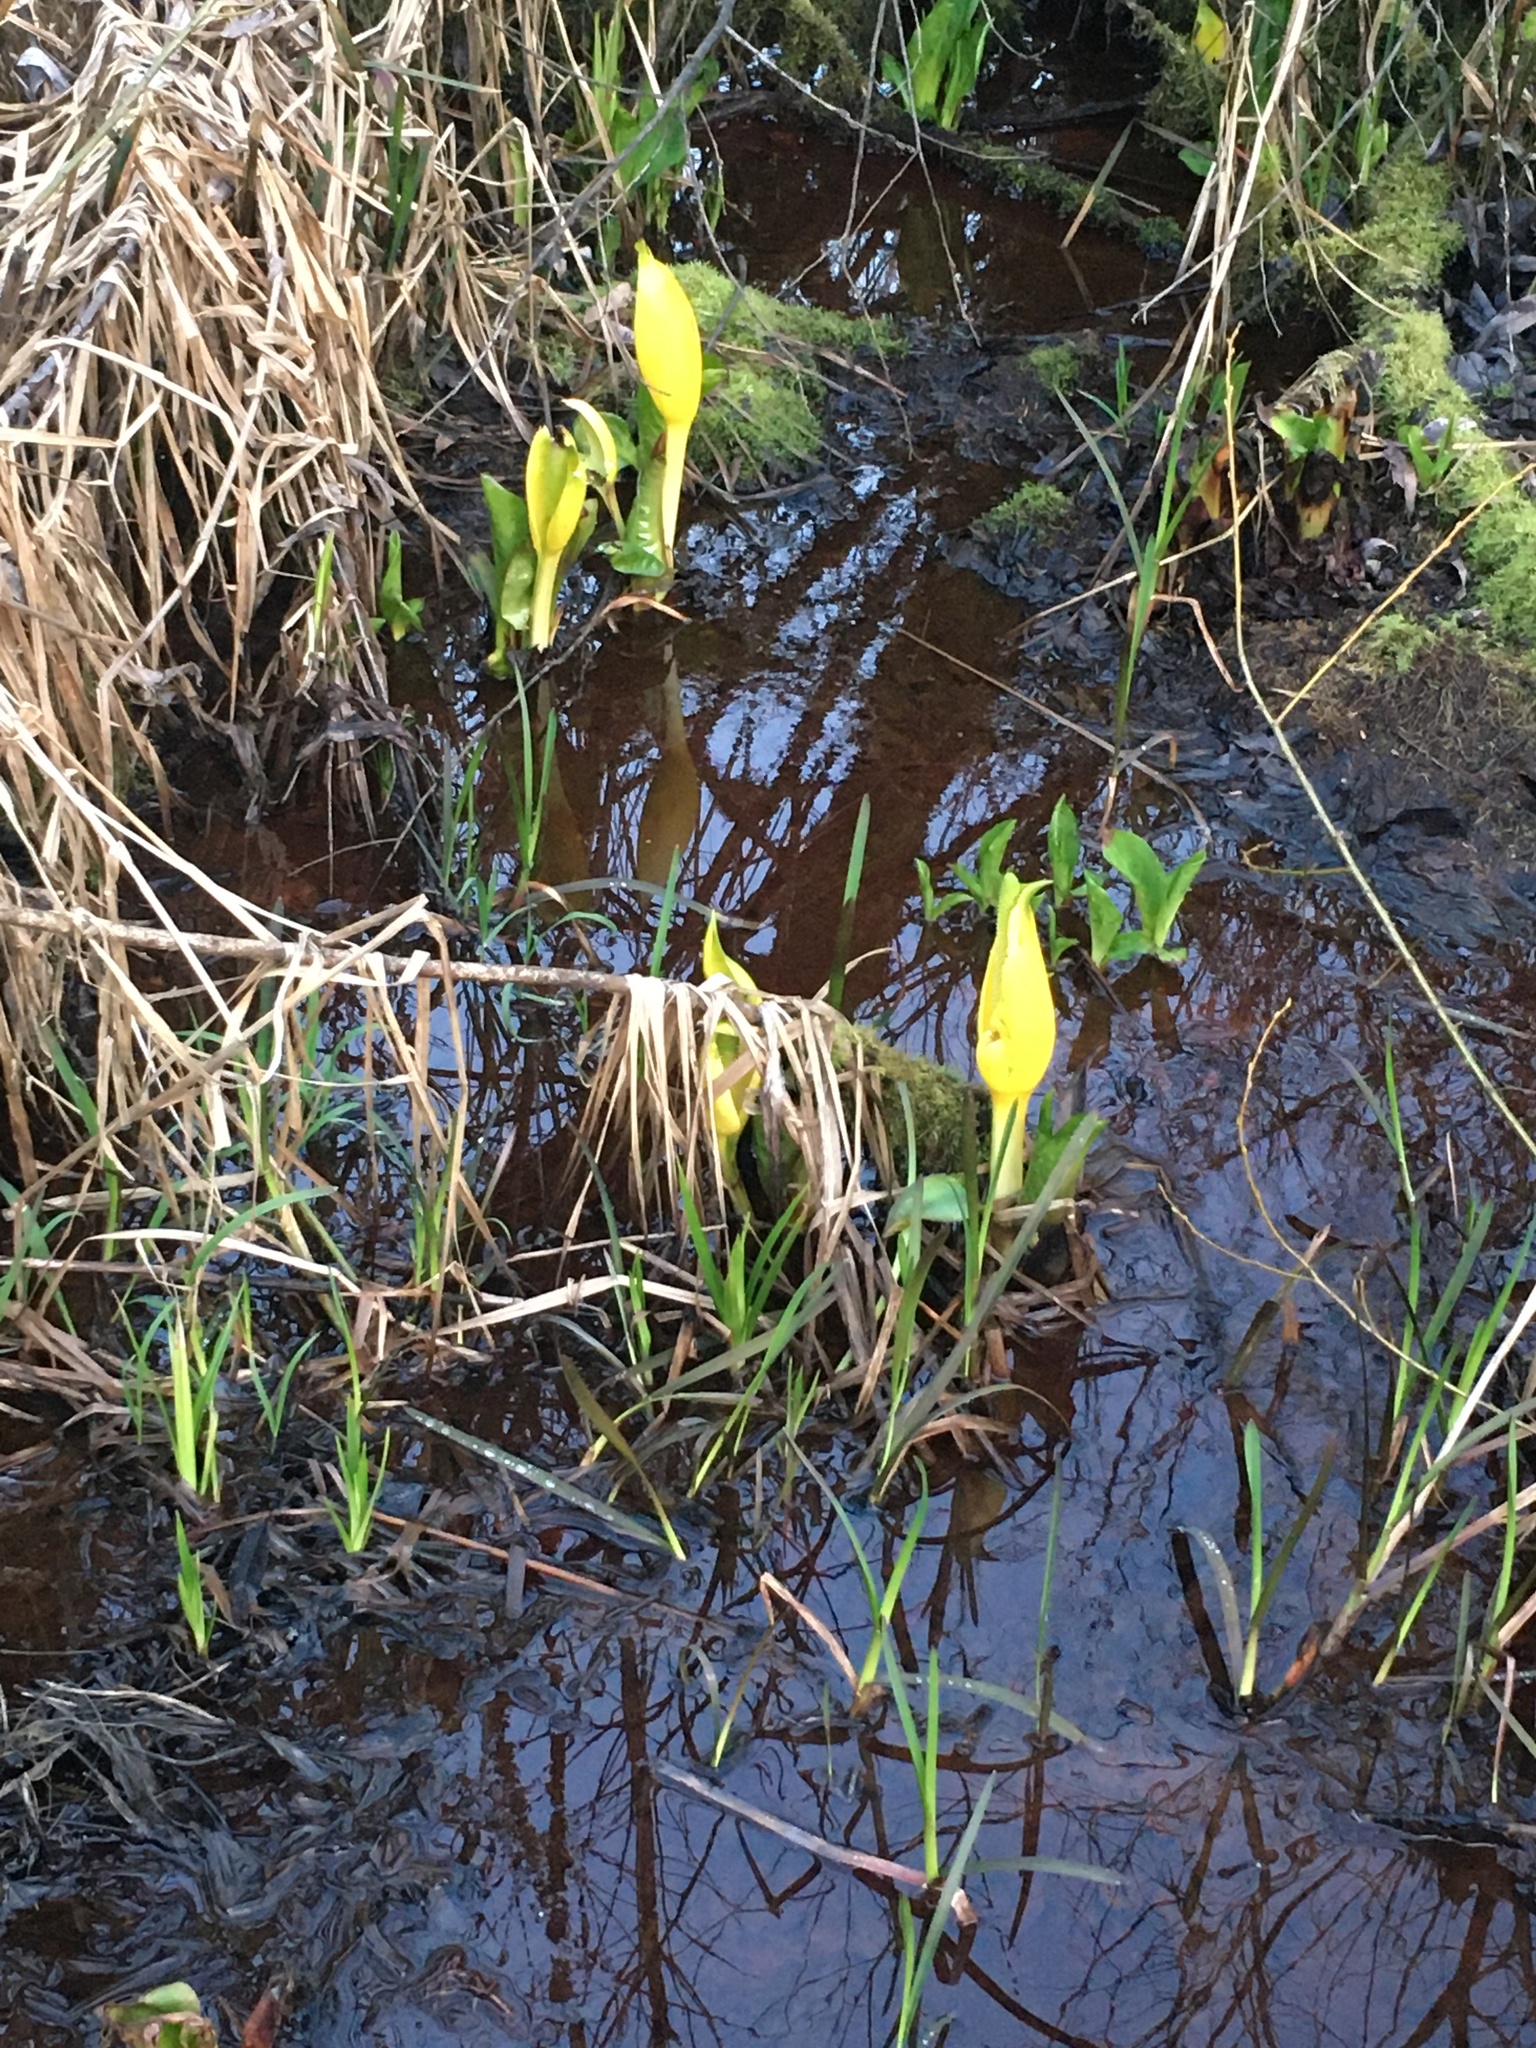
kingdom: Plantae
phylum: Tracheophyta
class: Liliopsida
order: Alismatales
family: Araceae
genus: Lysichiton
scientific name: Lysichiton americanus
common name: American skunk cabbage
